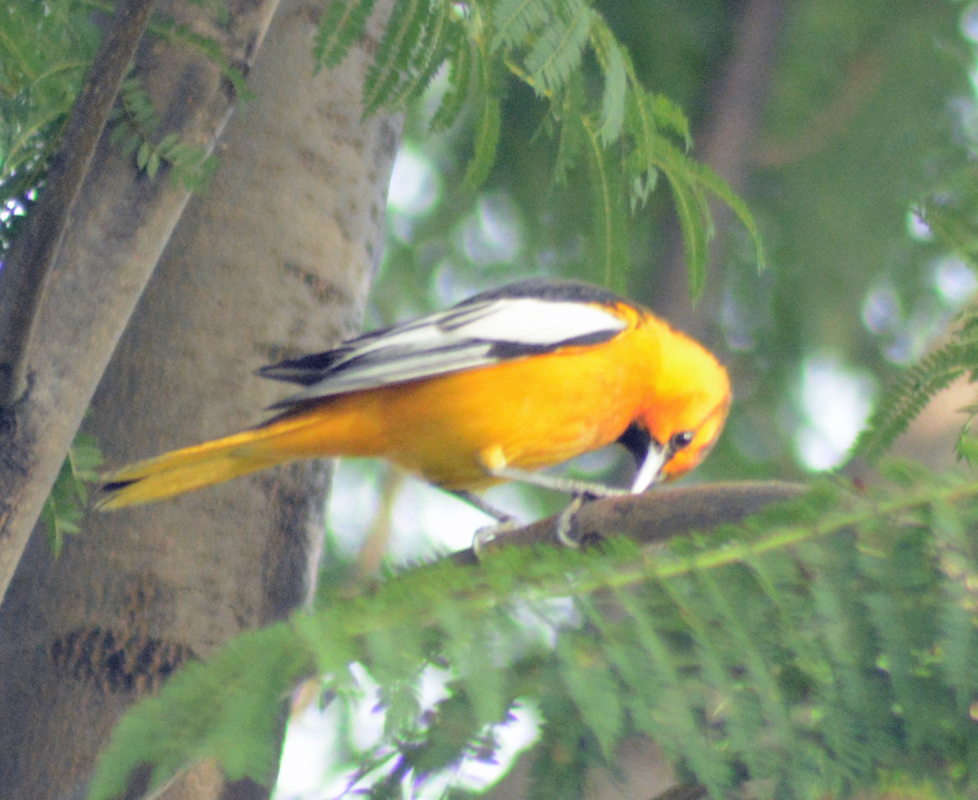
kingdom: Animalia
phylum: Chordata
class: Aves
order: Passeriformes
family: Icteridae
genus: Icterus
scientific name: Icterus bullockii
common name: Bullock's oriole
